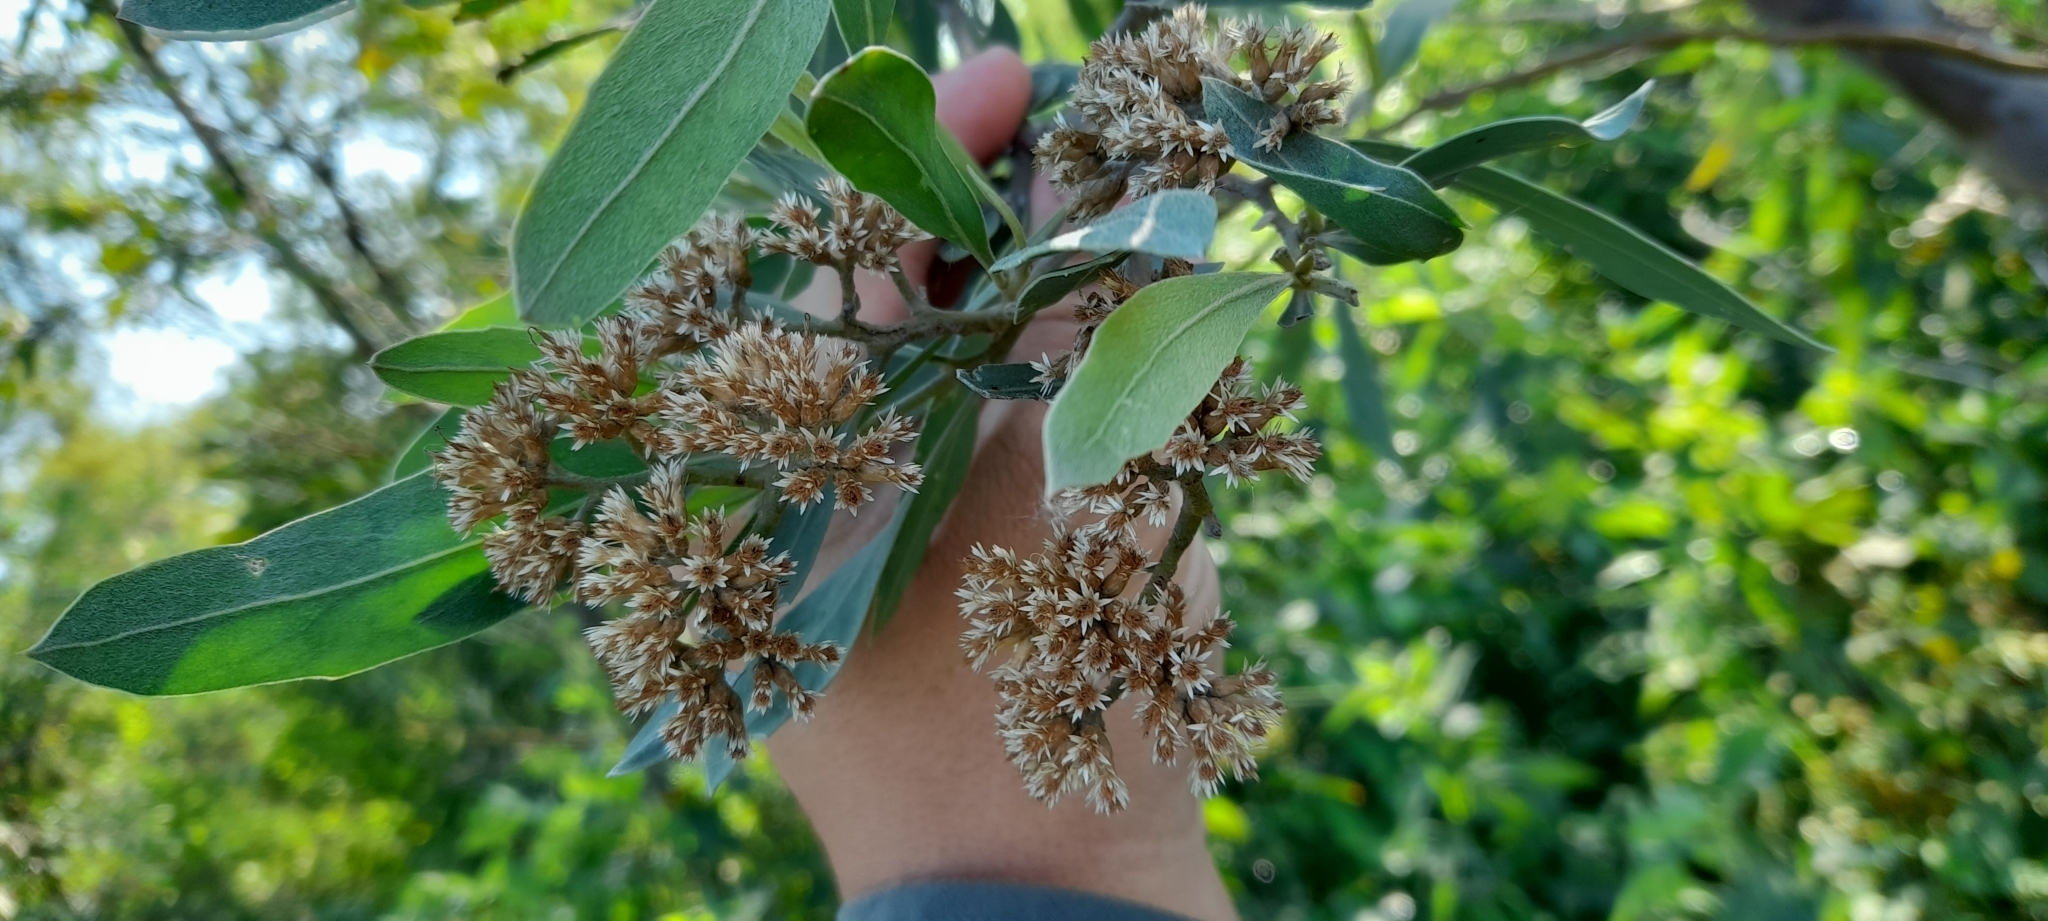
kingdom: Plantae
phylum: Tracheophyta
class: Magnoliopsida
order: Asterales
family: Asteraceae
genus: Tessaria
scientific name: Tessaria integrifolia
